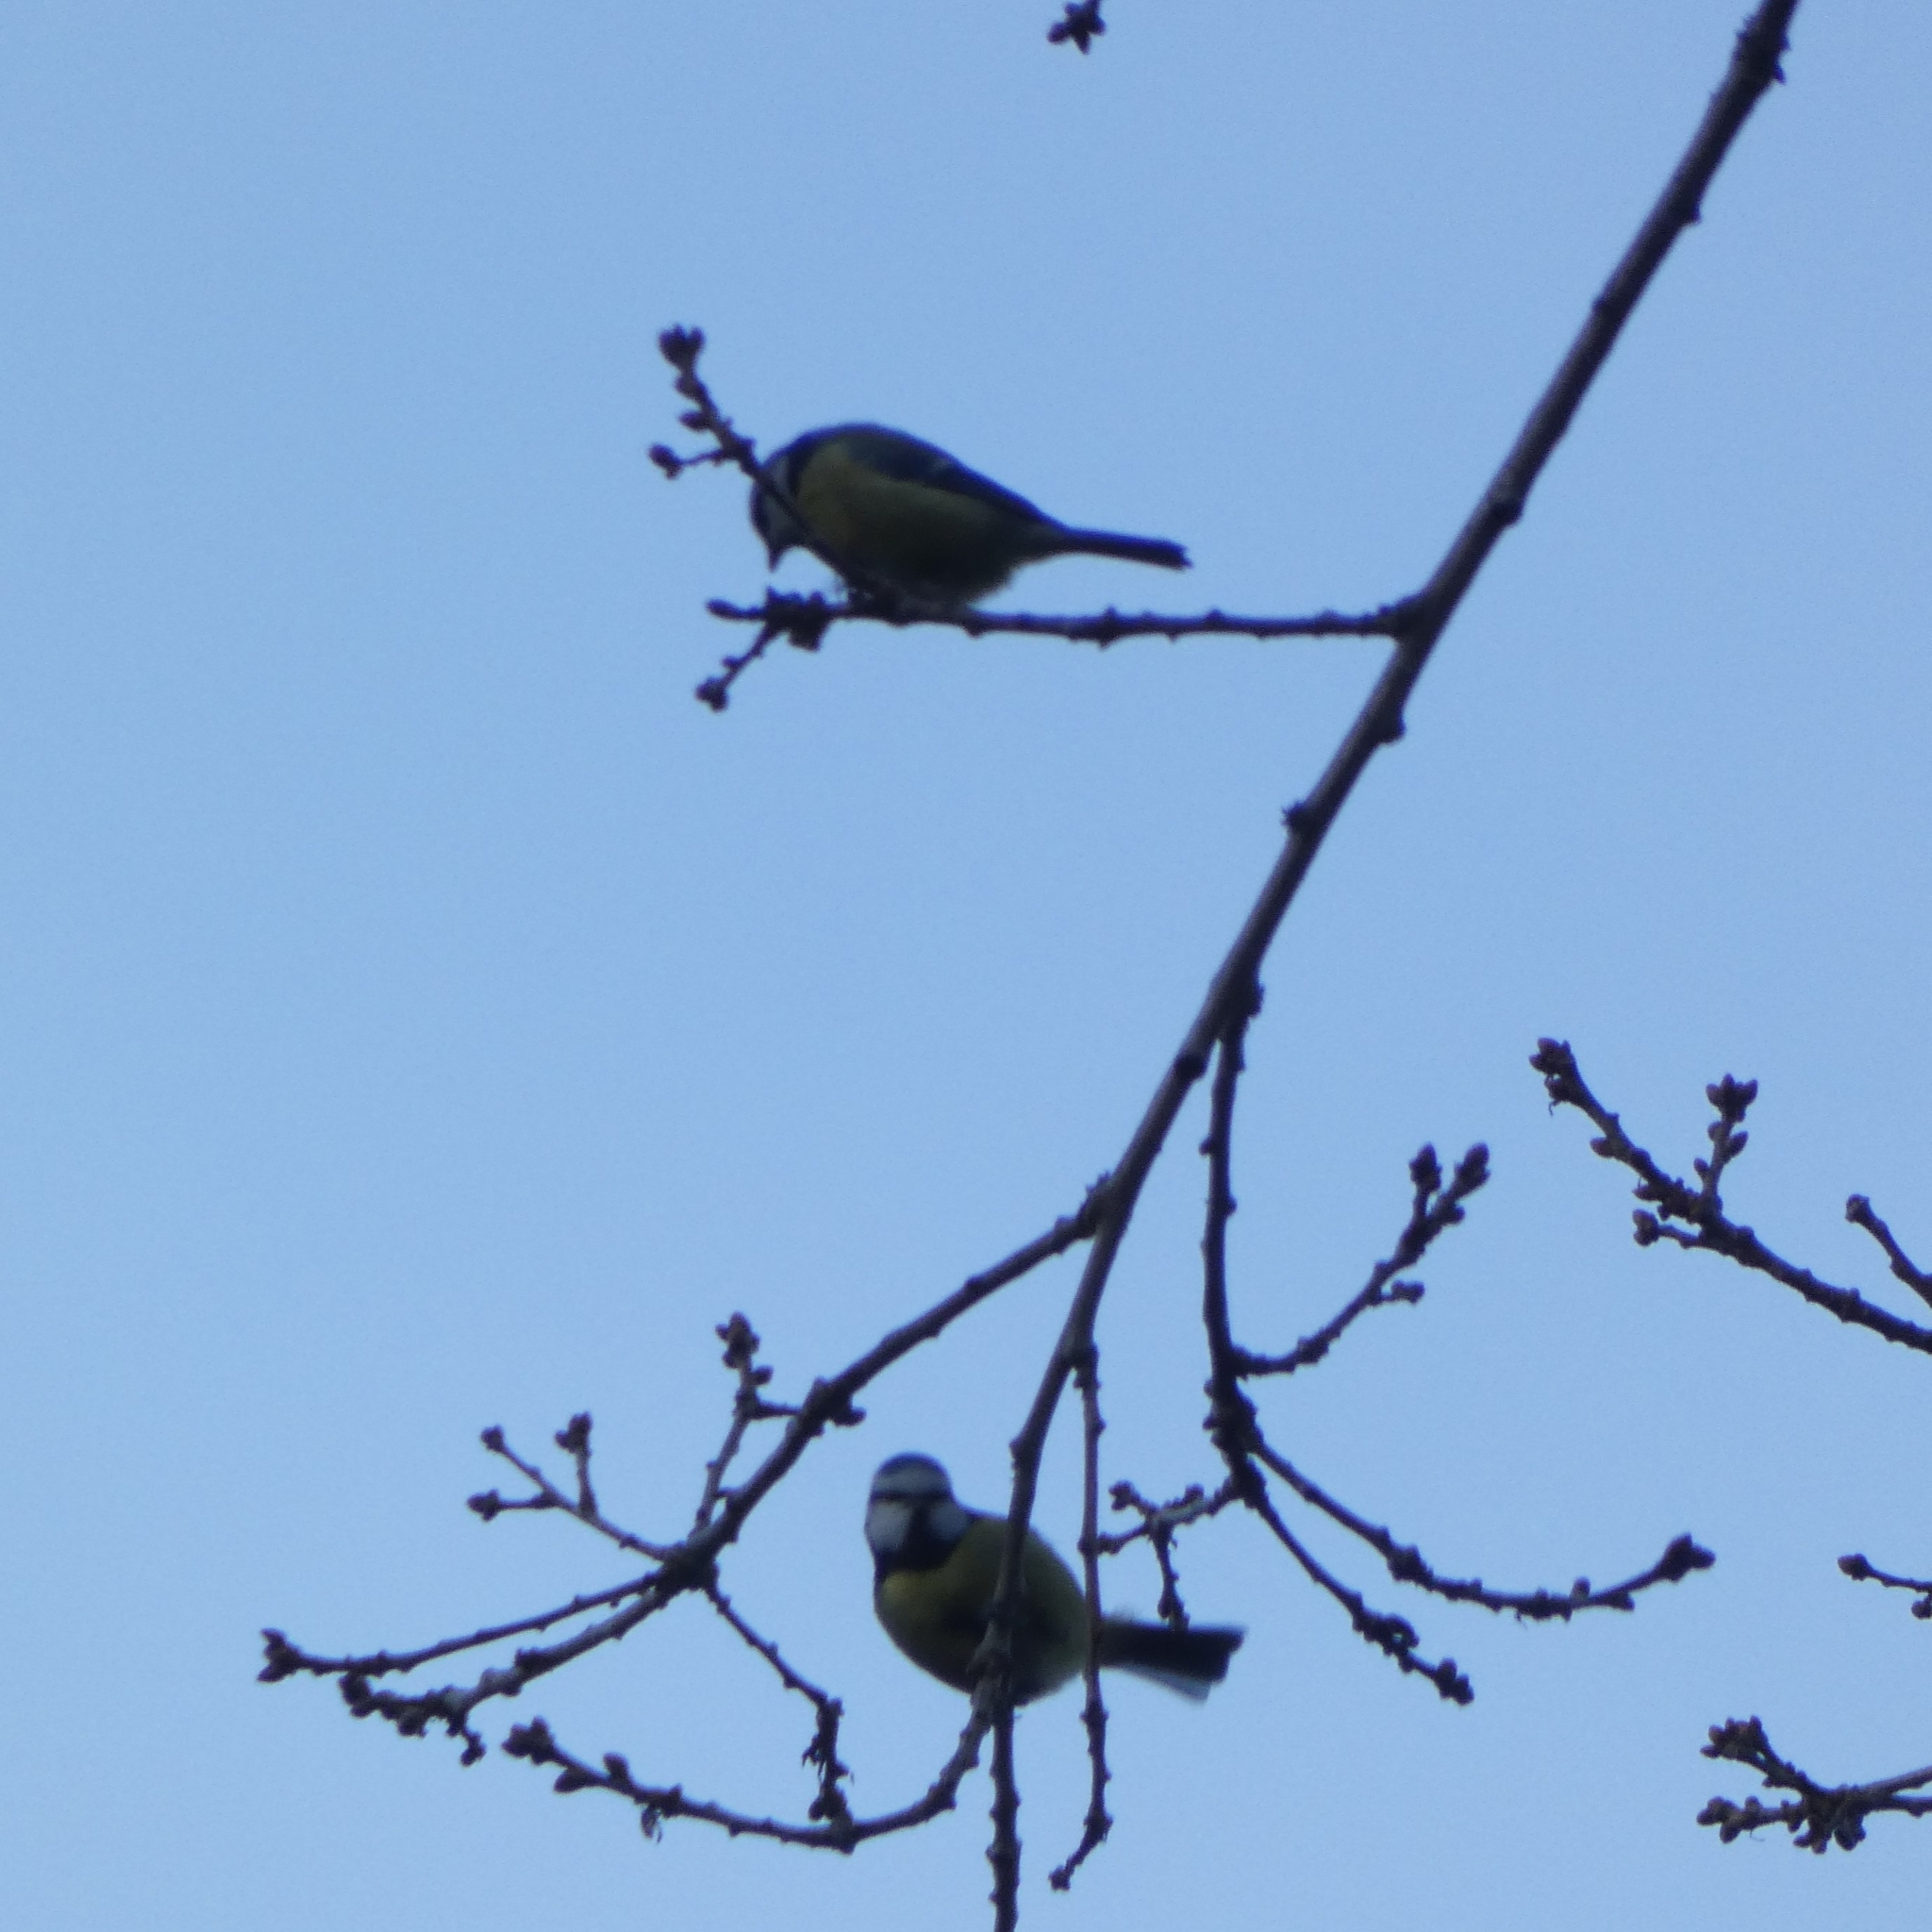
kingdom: Animalia
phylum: Chordata
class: Aves
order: Passeriformes
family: Paridae
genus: Cyanistes
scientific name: Cyanistes caeruleus
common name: Eurasian blue tit
